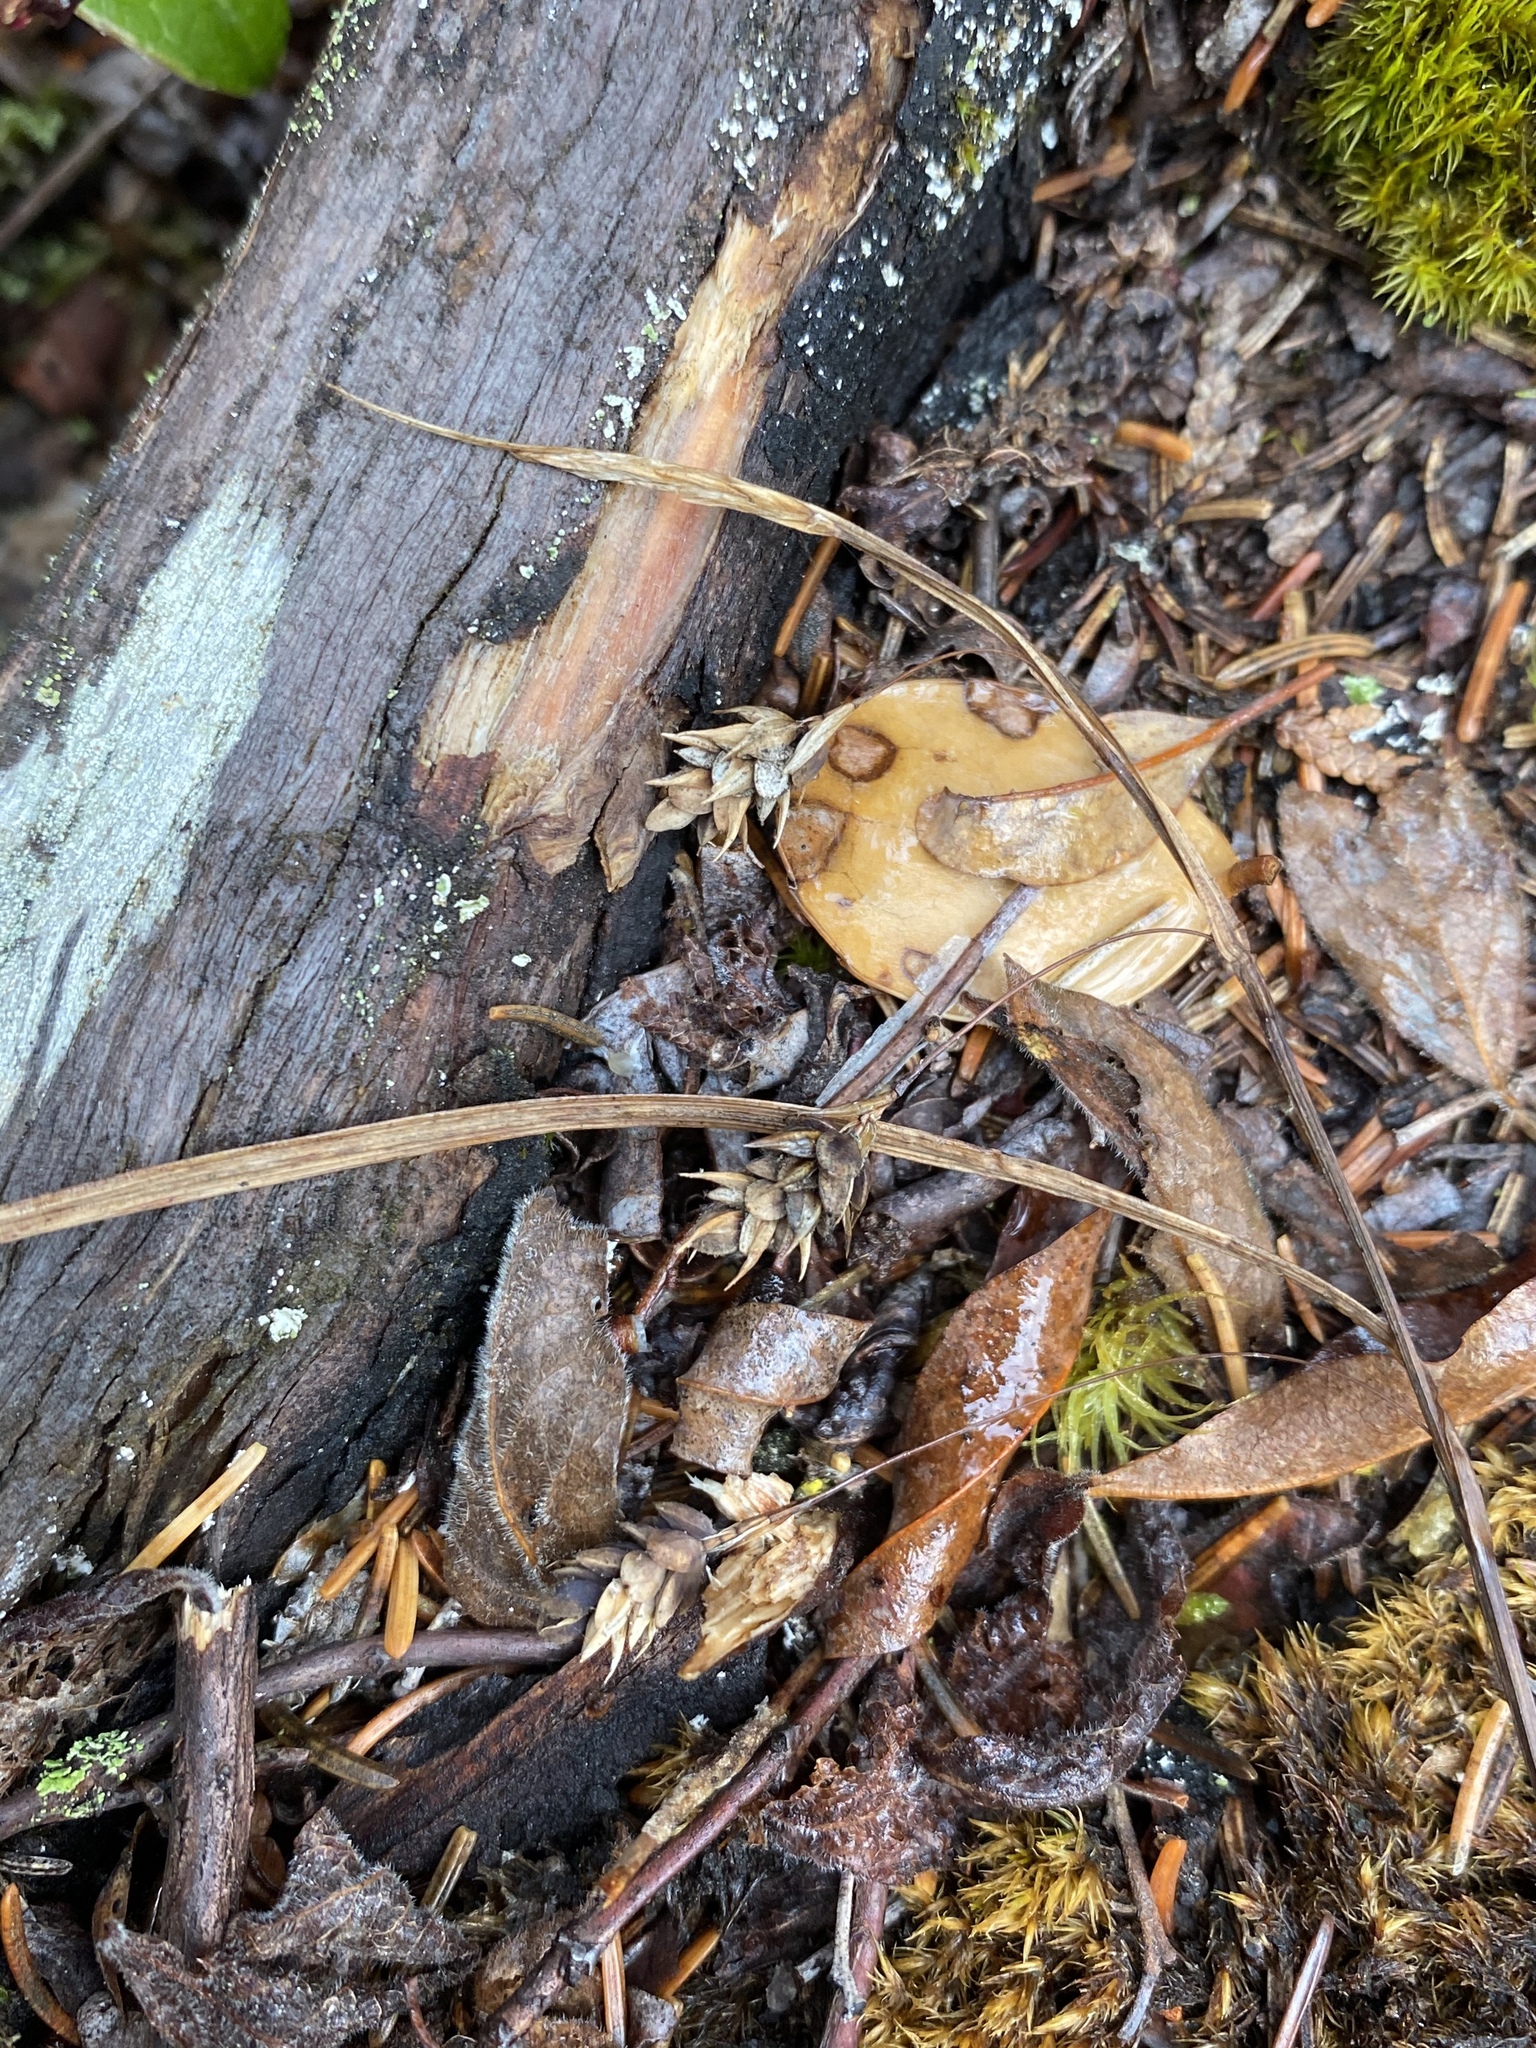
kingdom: Plantae
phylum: Tracheophyta
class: Liliopsida
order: Poales
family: Cyperaceae
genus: Carex
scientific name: Carex magellanica
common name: Bog sedge
